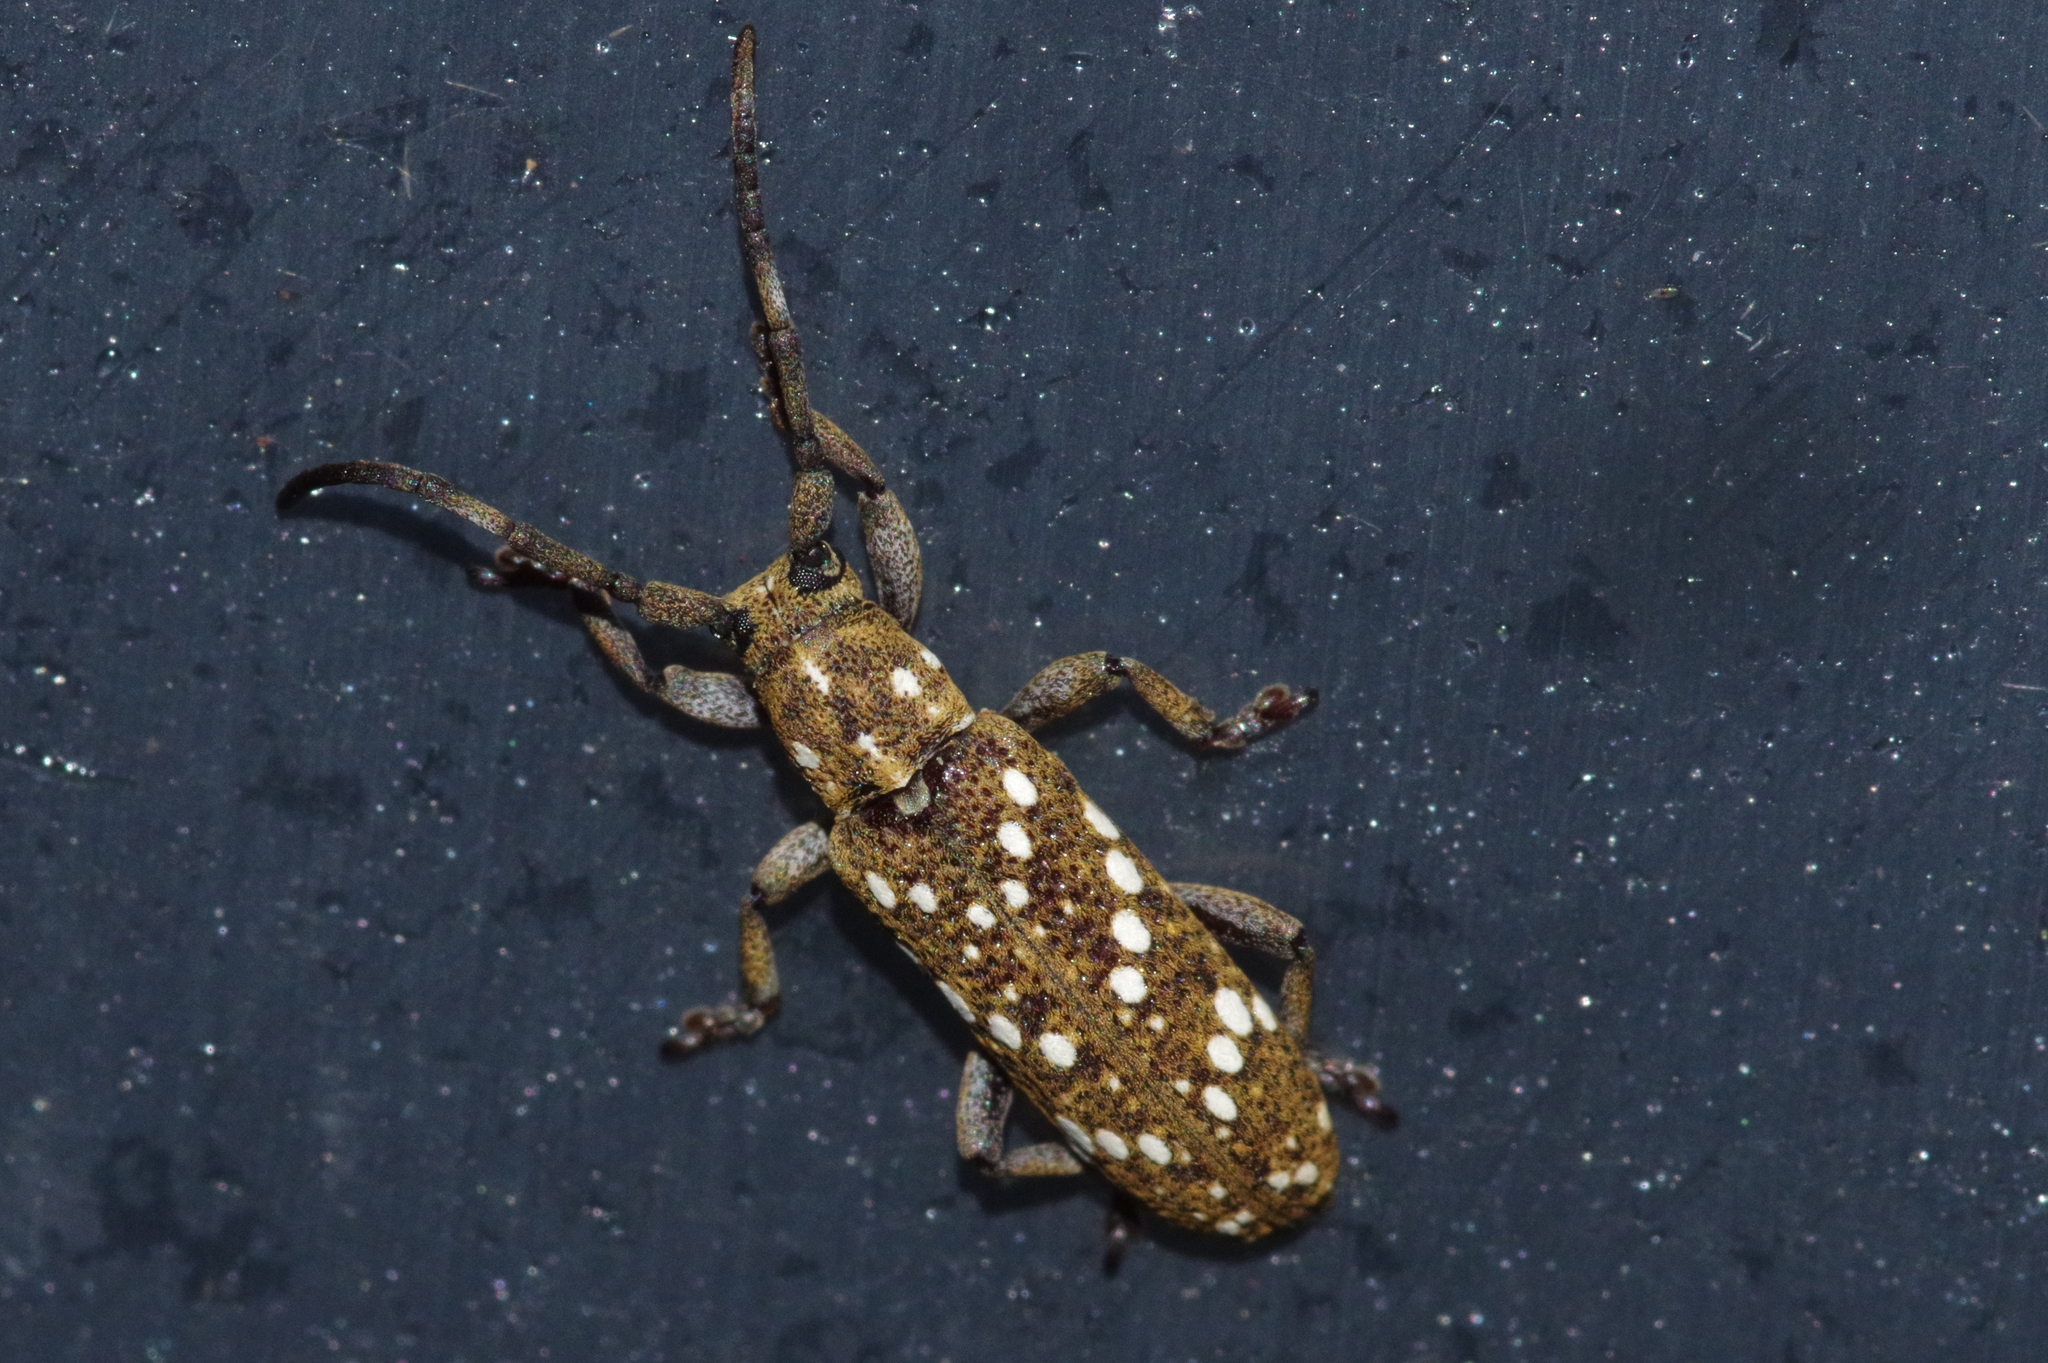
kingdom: Animalia
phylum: Arthropoda
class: Insecta
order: Coleoptera
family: Cerambycidae
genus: Apomecyna
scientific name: Apomecyna histrio
